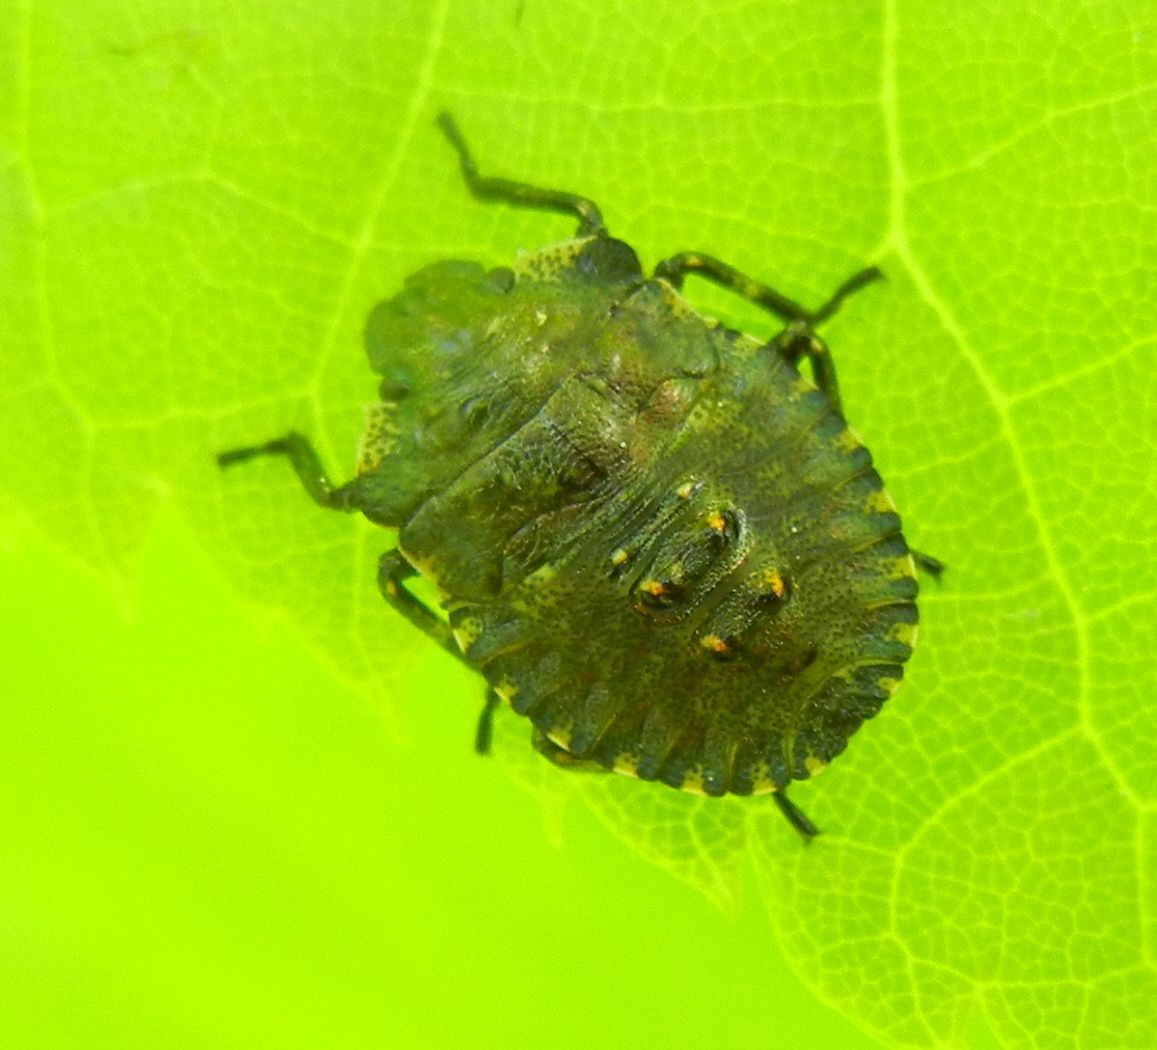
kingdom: Animalia
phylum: Arthropoda
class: Insecta
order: Hemiptera
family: Pentatomidae
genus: Pentatoma
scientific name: Pentatoma rufipes
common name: Forest bug
